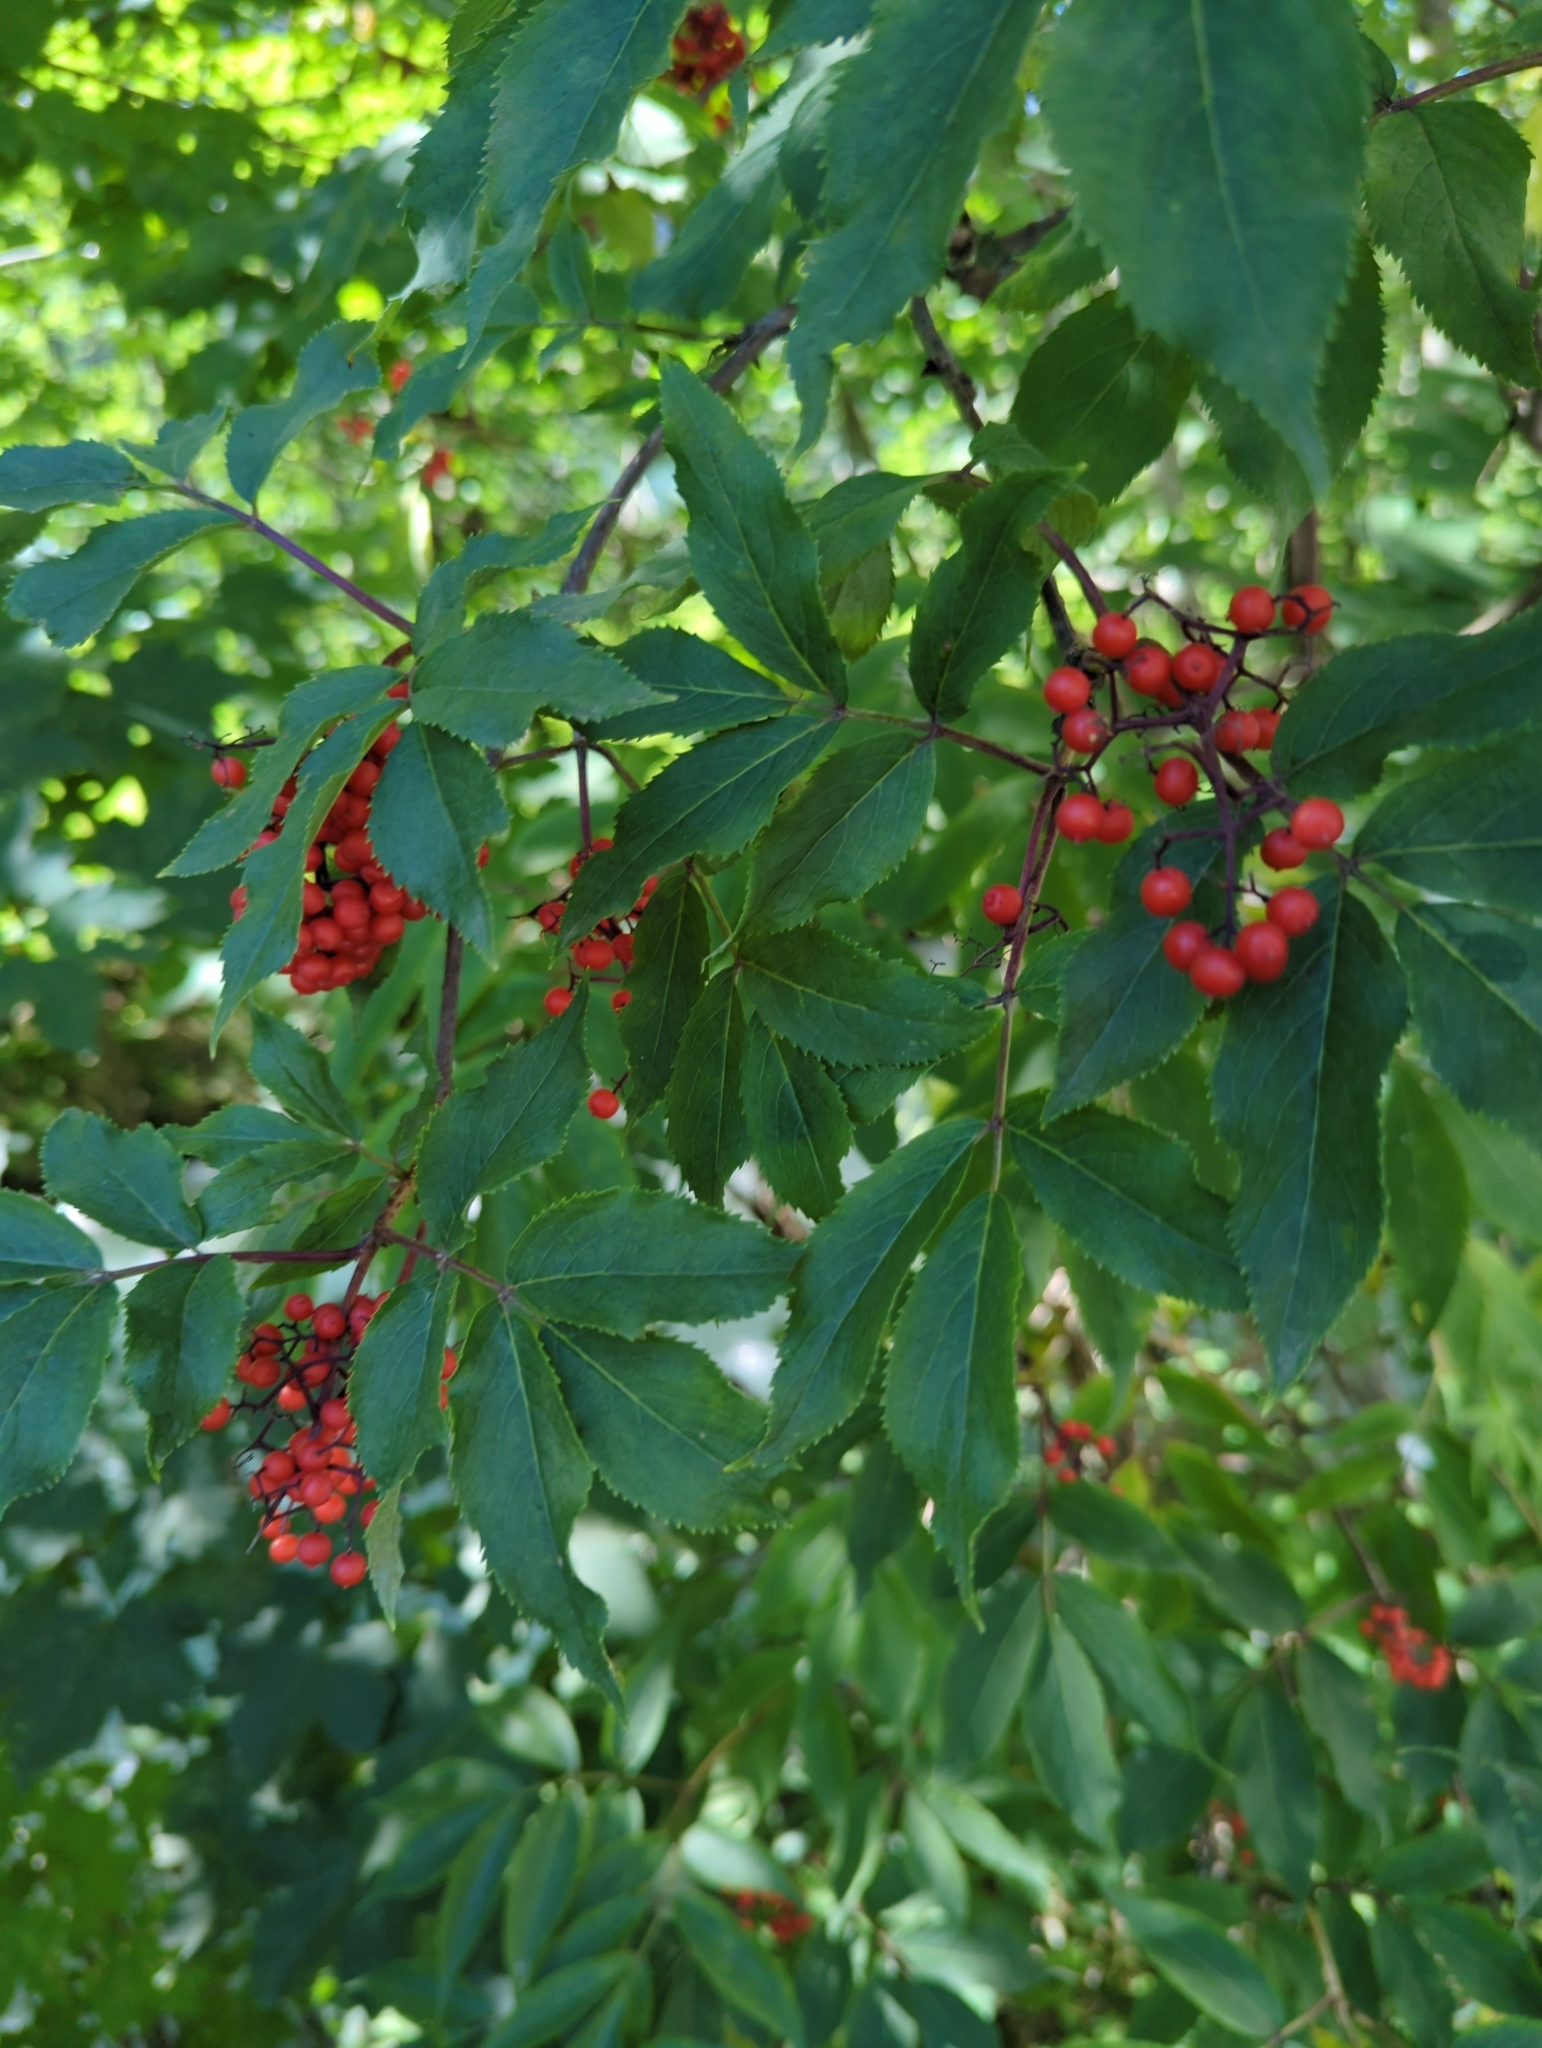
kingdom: Plantae
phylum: Tracheophyta
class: Magnoliopsida
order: Dipsacales
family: Viburnaceae
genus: Sambucus
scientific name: Sambucus racemosa
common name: Red-berried elder
